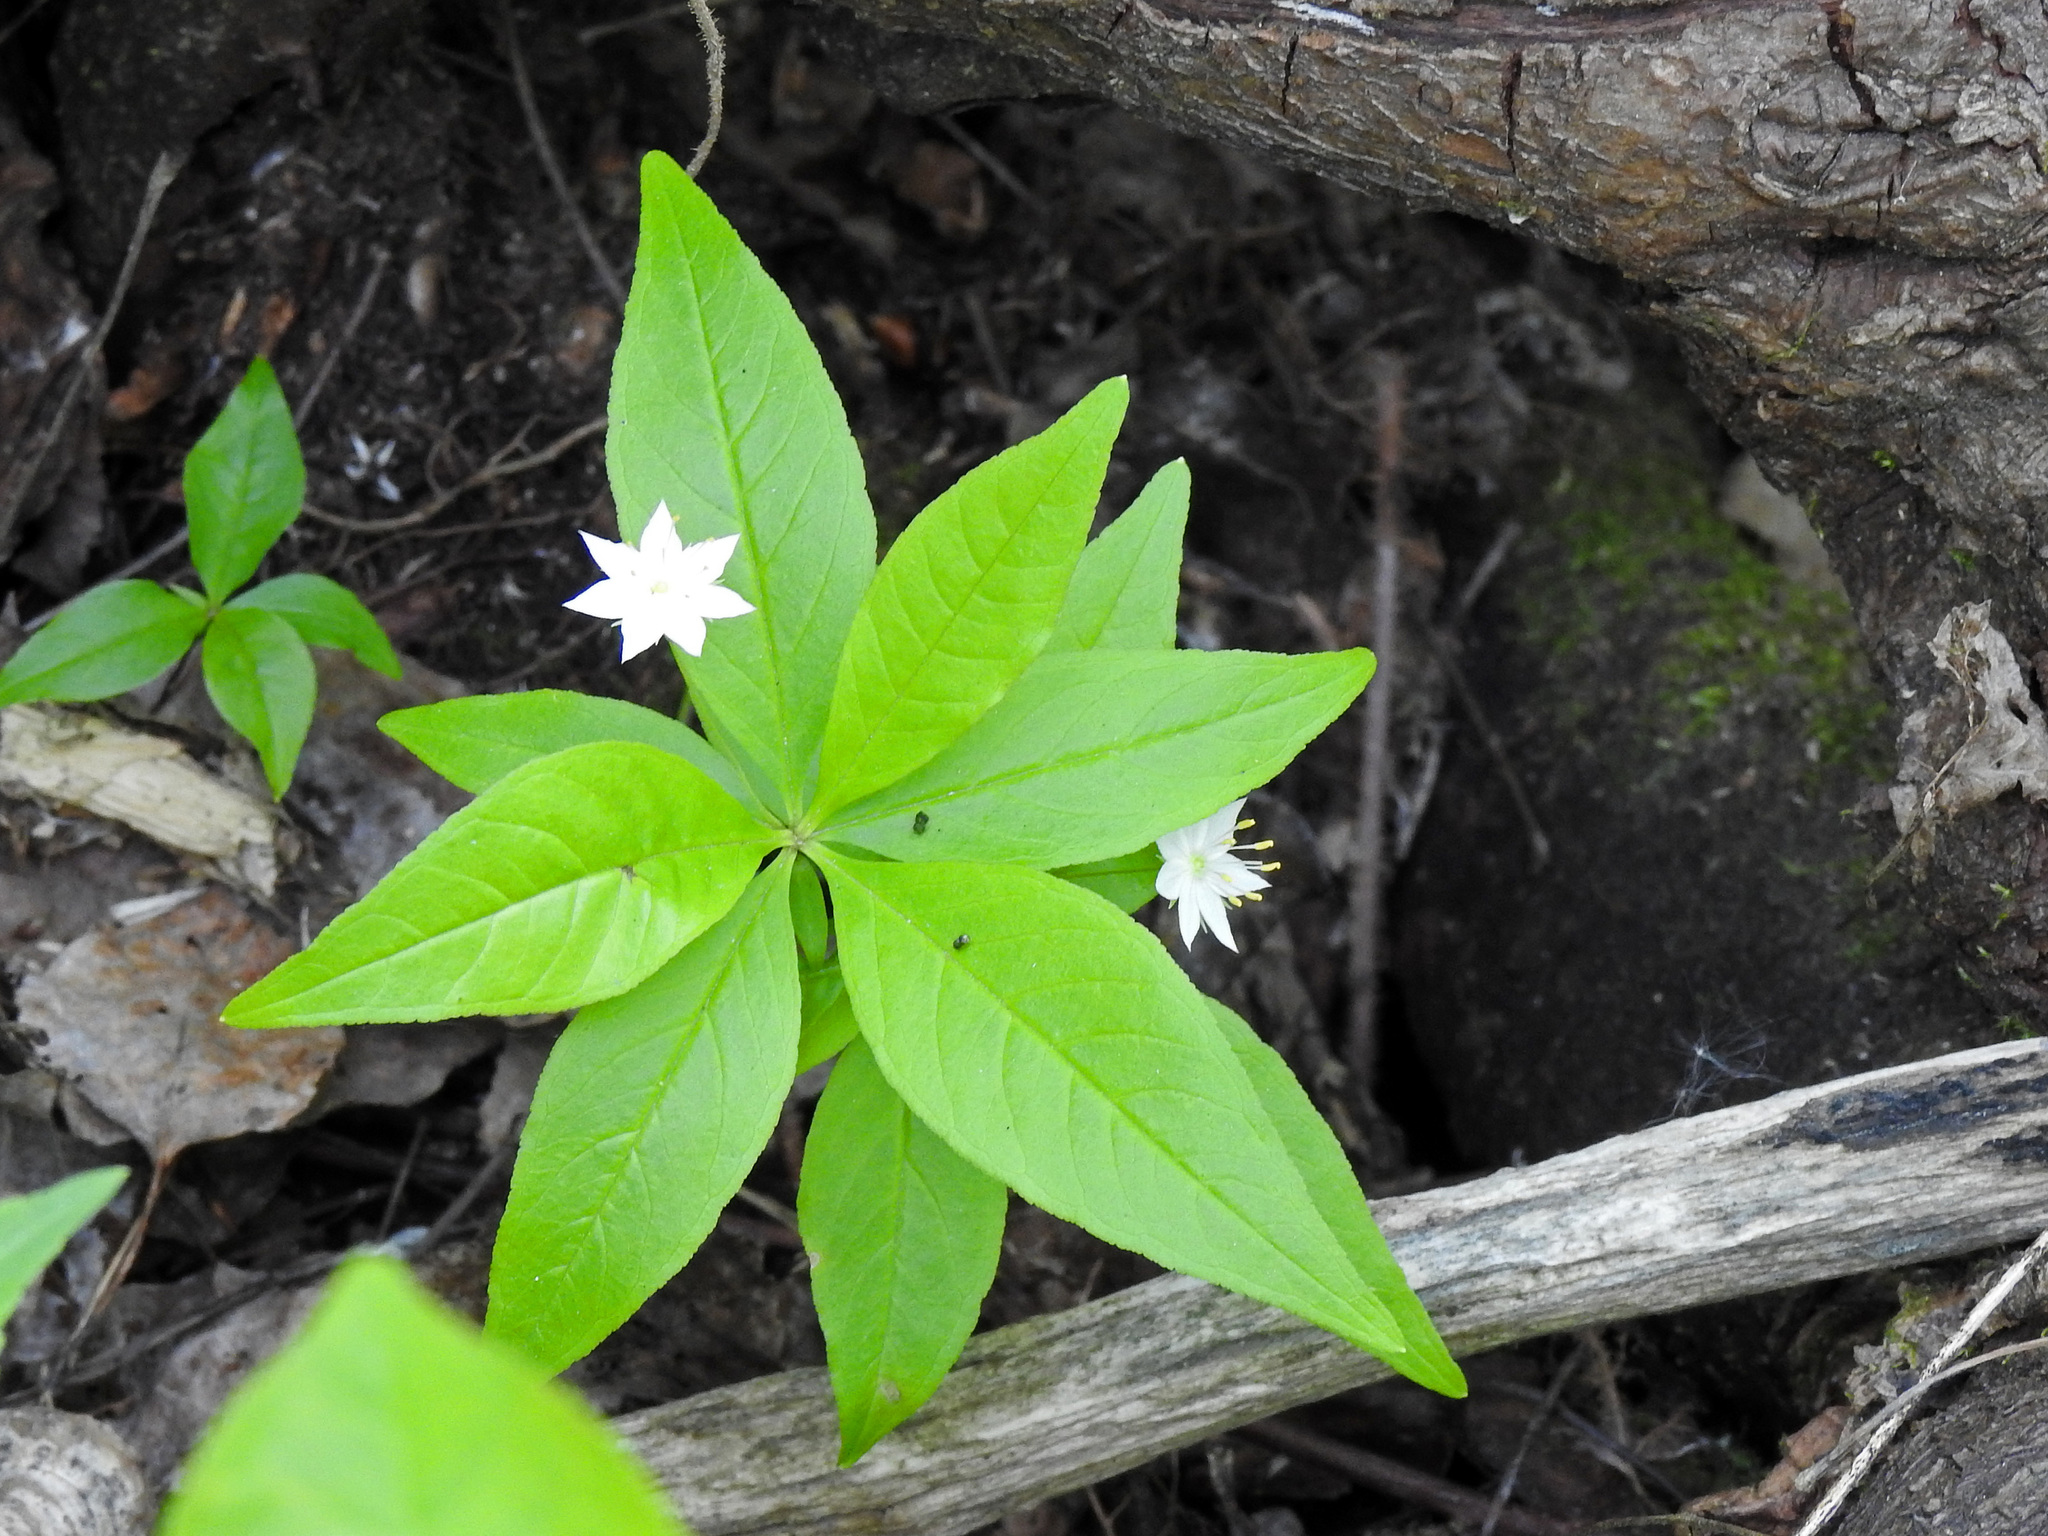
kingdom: Plantae
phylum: Tracheophyta
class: Magnoliopsida
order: Ericales
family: Primulaceae
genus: Lysimachia
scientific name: Lysimachia borealis
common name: American starflower
